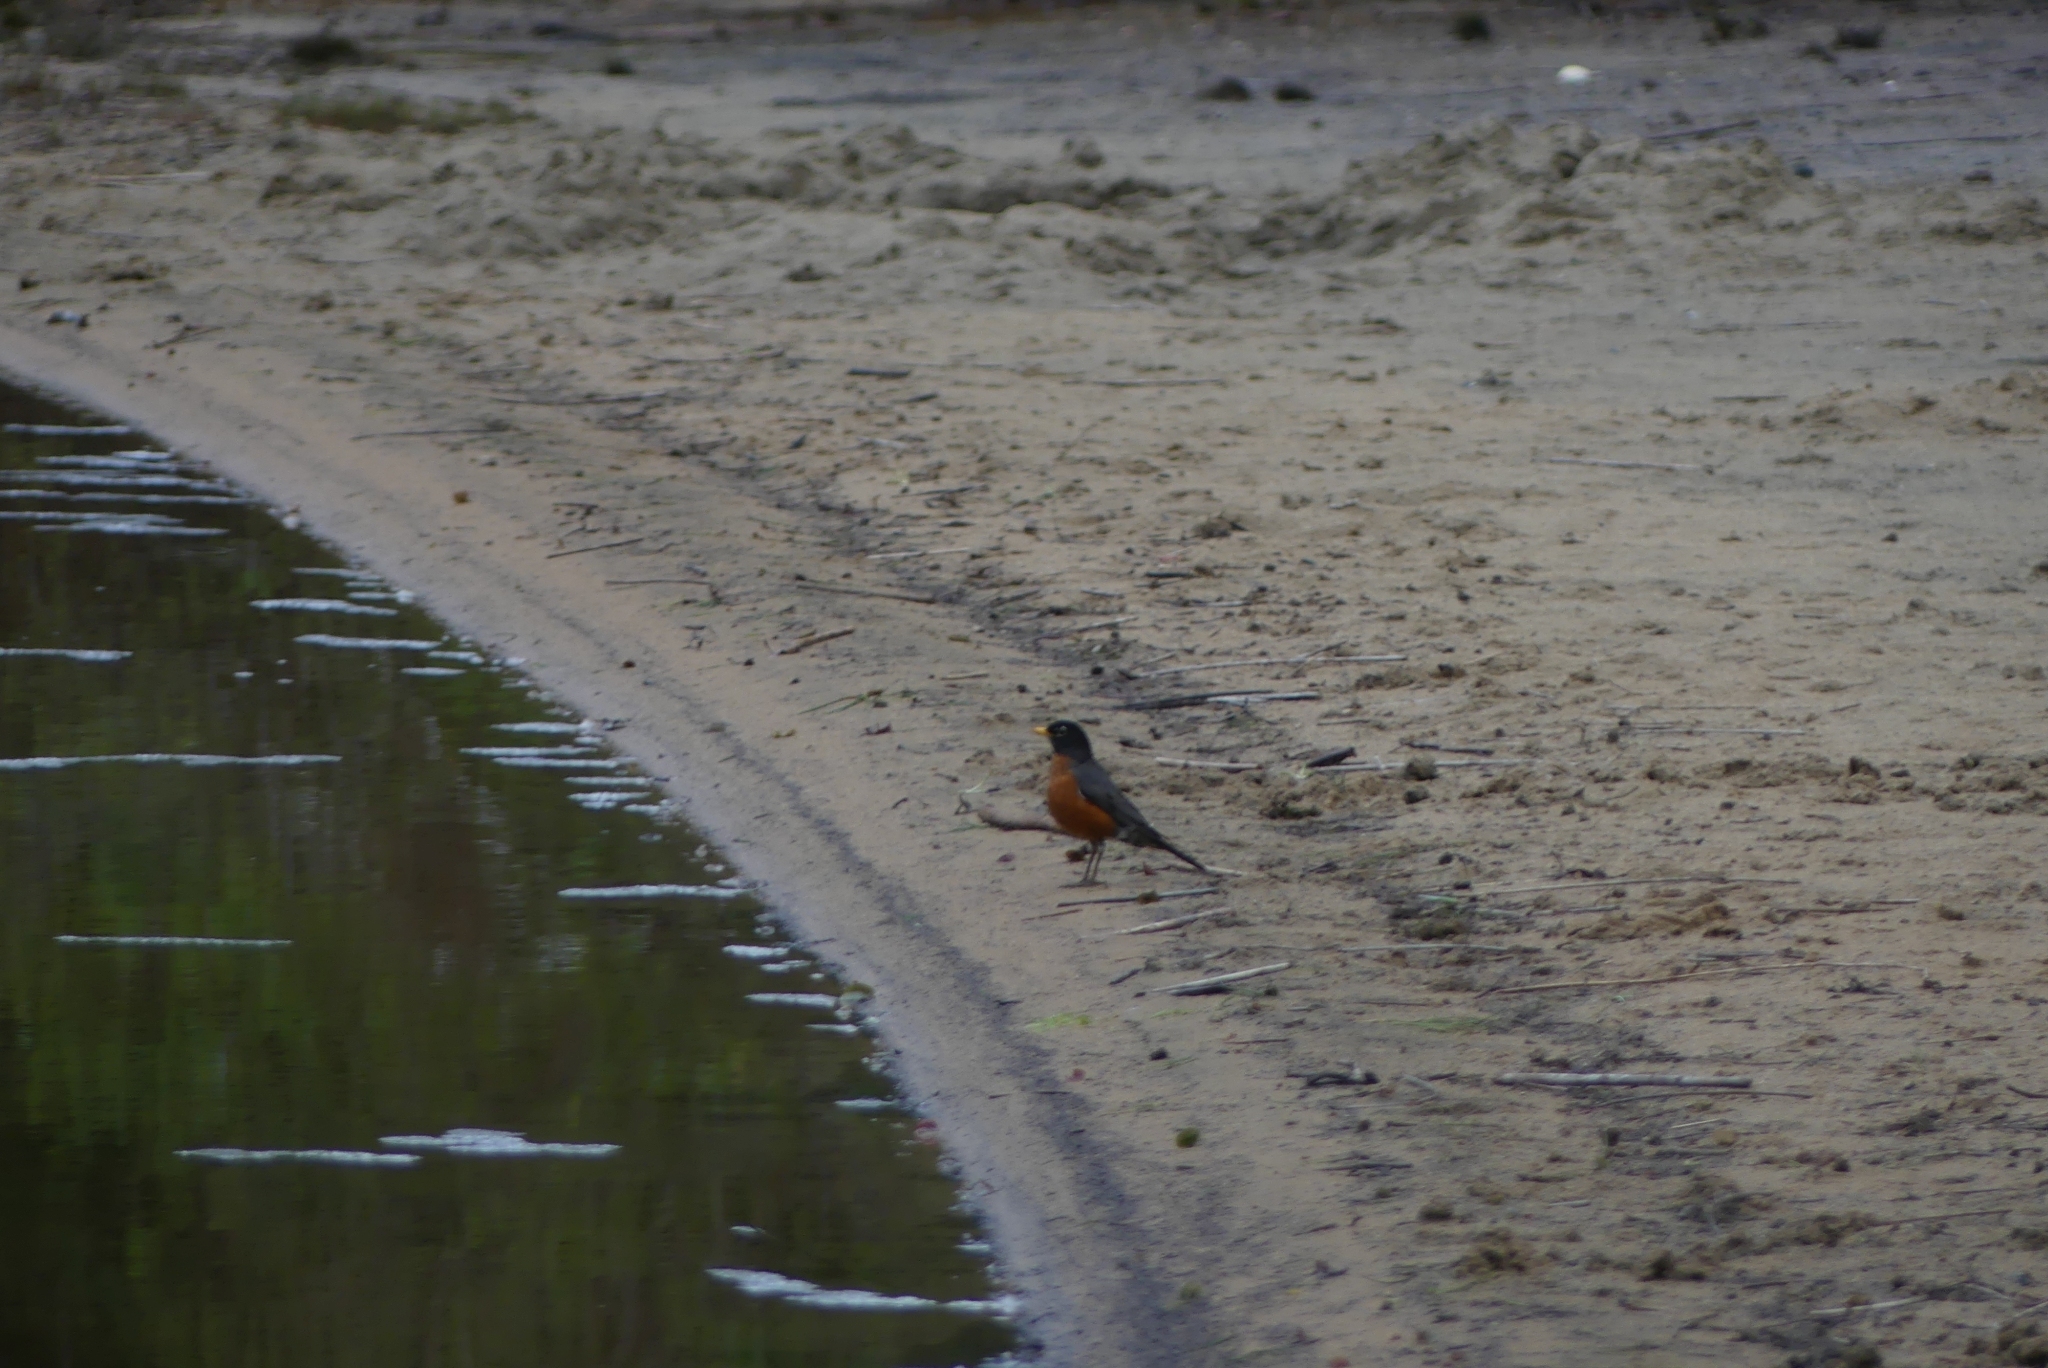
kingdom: Animalia
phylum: Chordata
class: Aves
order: Passeriformes
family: Turdidae
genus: Turdus
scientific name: Turdus migratorius
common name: American robin
